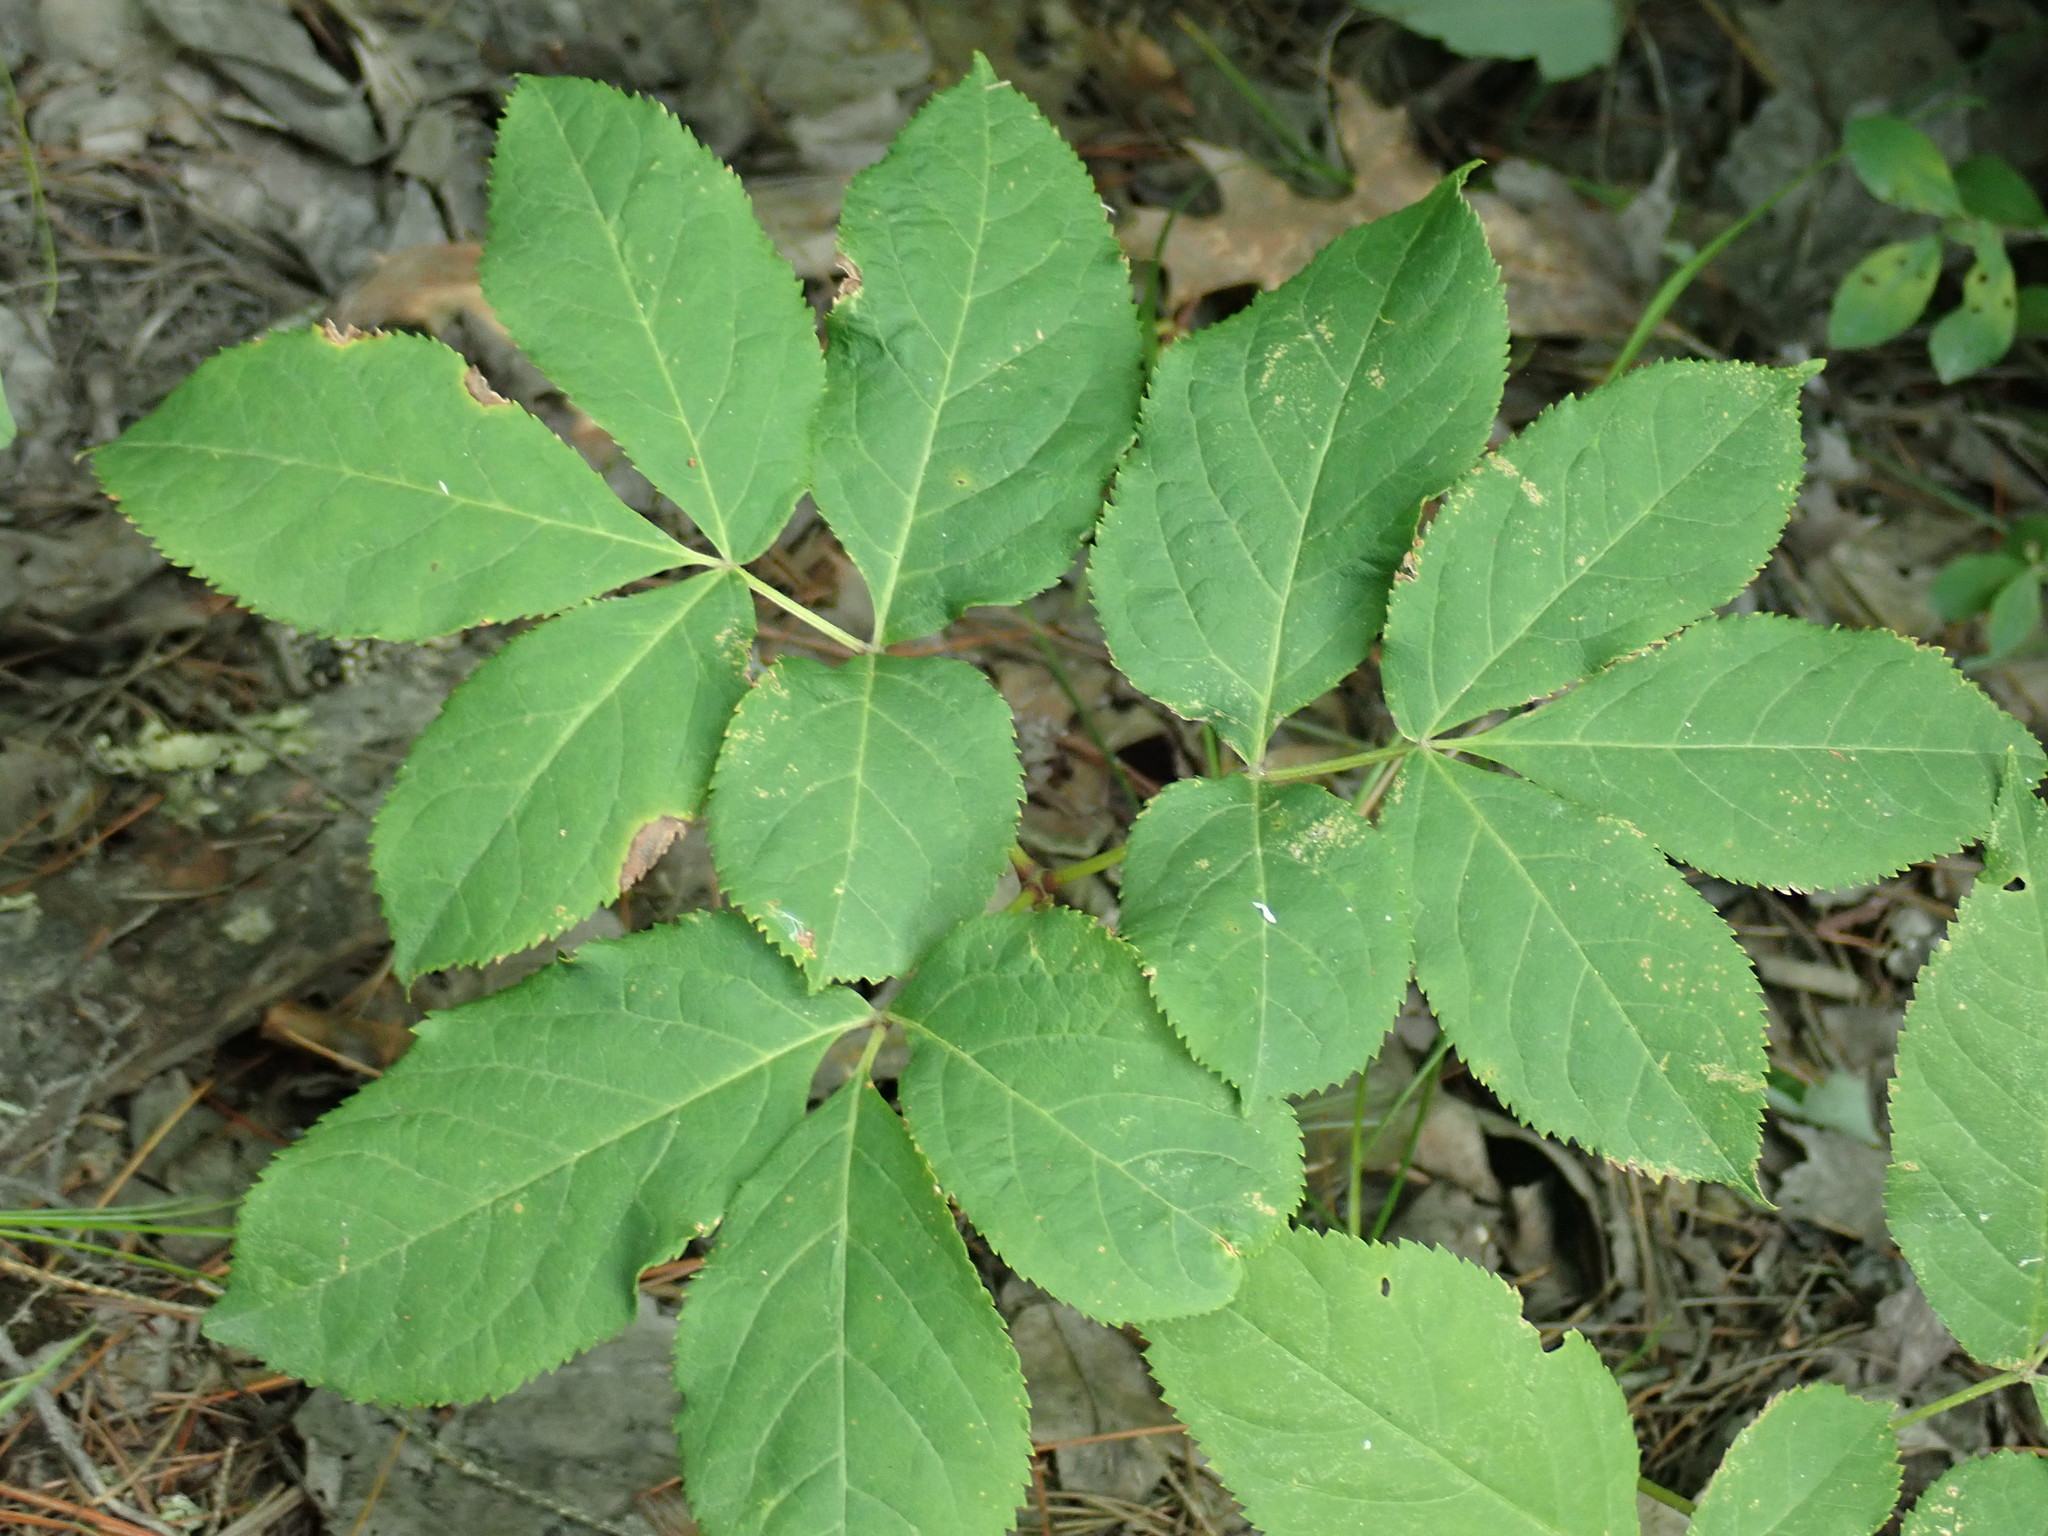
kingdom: Plantae
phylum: Tracheophyta
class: Magnoliopsida
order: Apiales
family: Araliaceae
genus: Aralia
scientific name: Aralia nudicaulis
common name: Wild sarsaparilla
